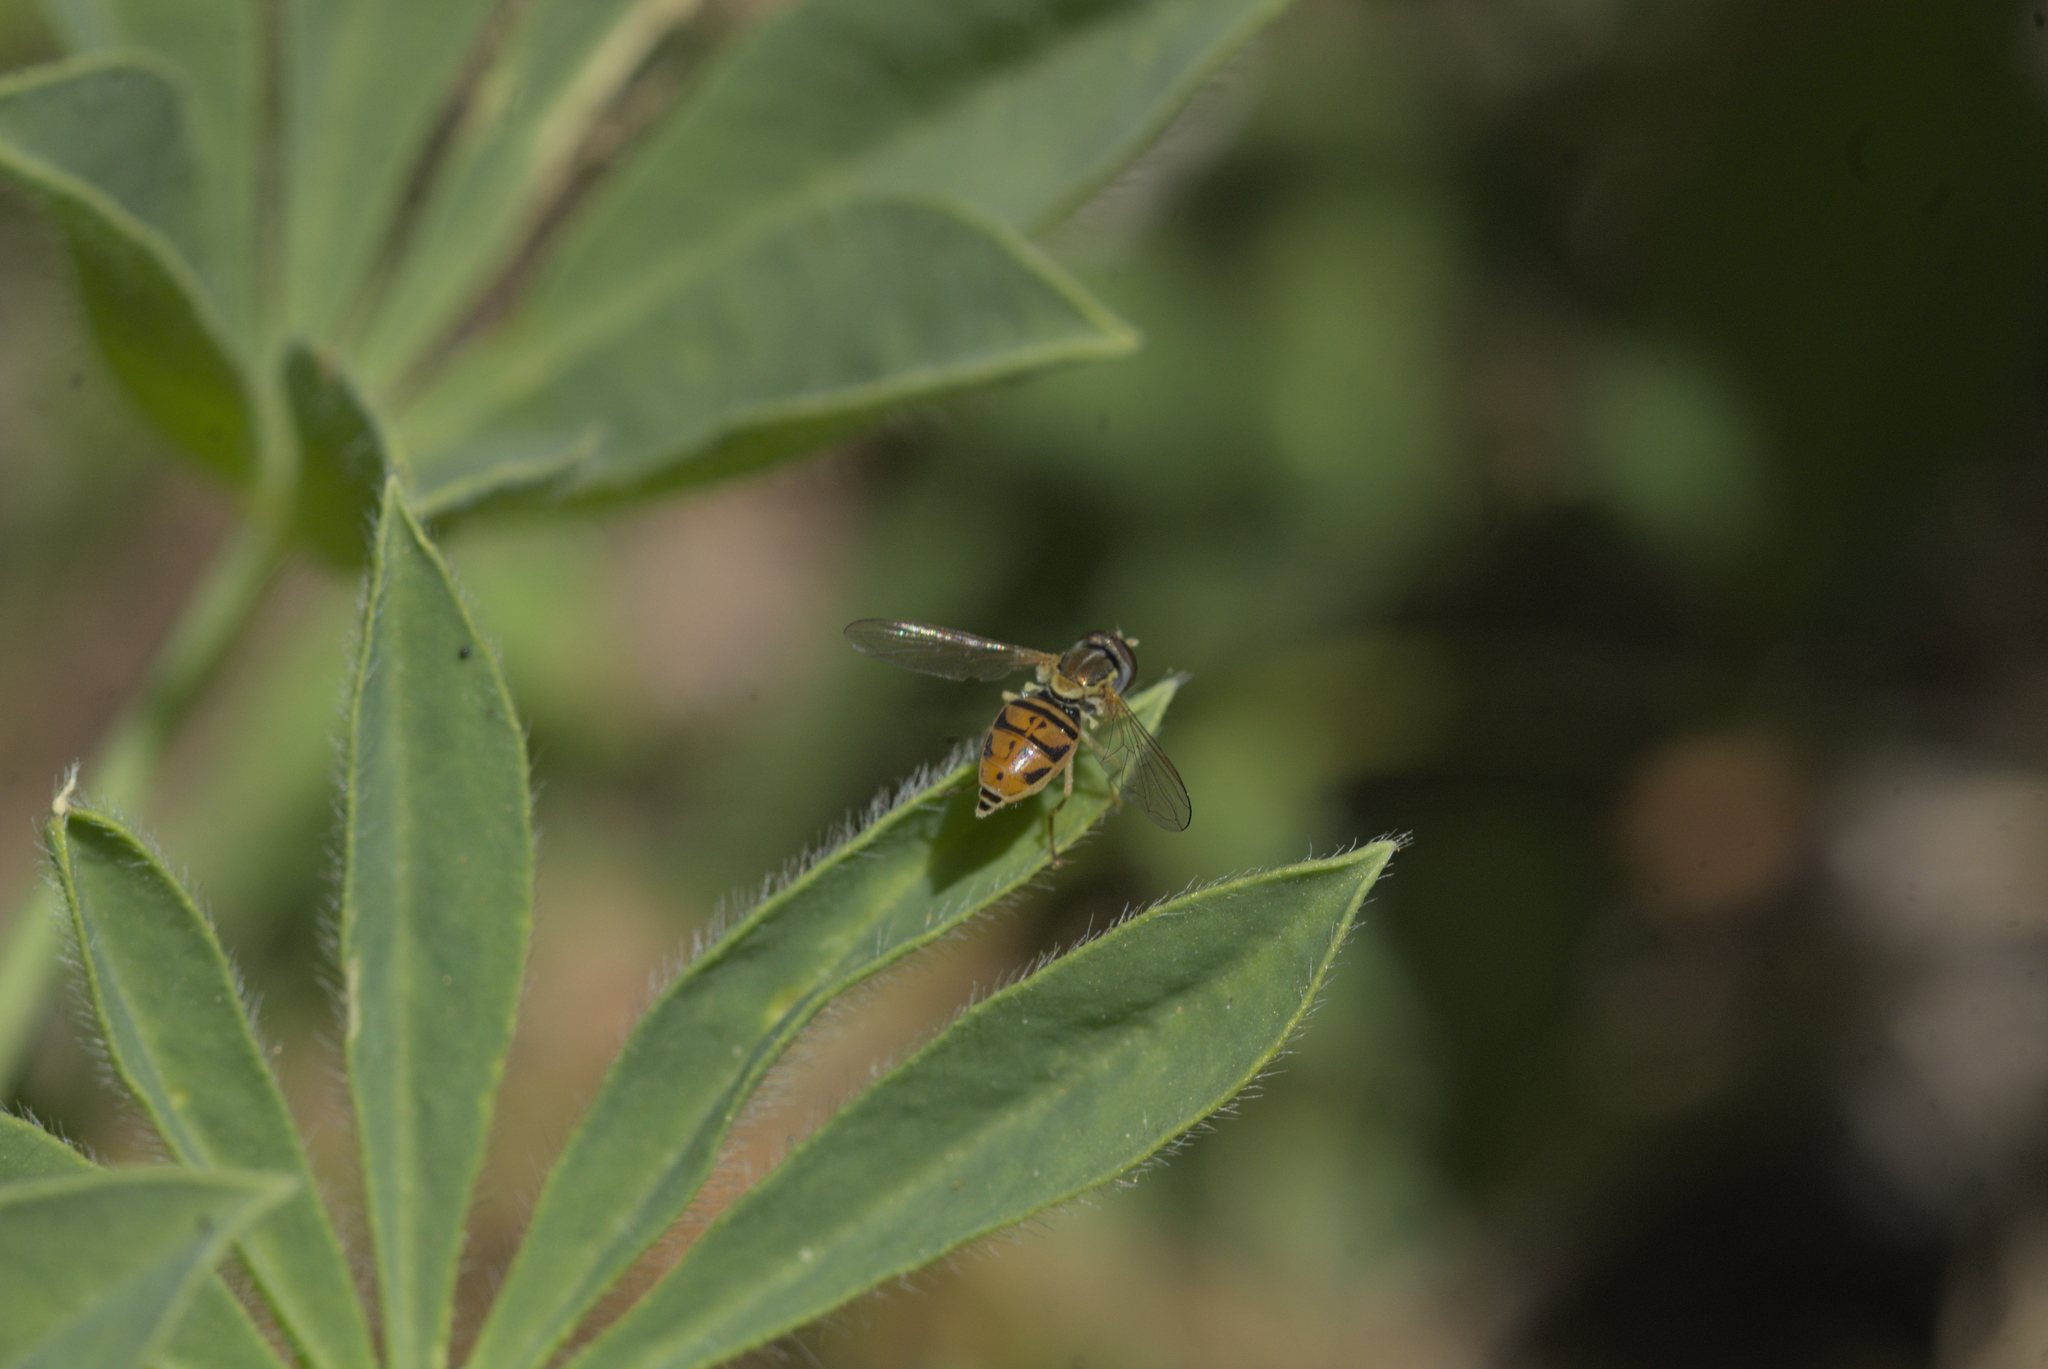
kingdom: Animalia
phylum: Arthropoda
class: Insecta
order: Diptera
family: Syrphidae
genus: Toxomerus
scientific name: Toxomerus marginatus
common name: Syrphid fly
